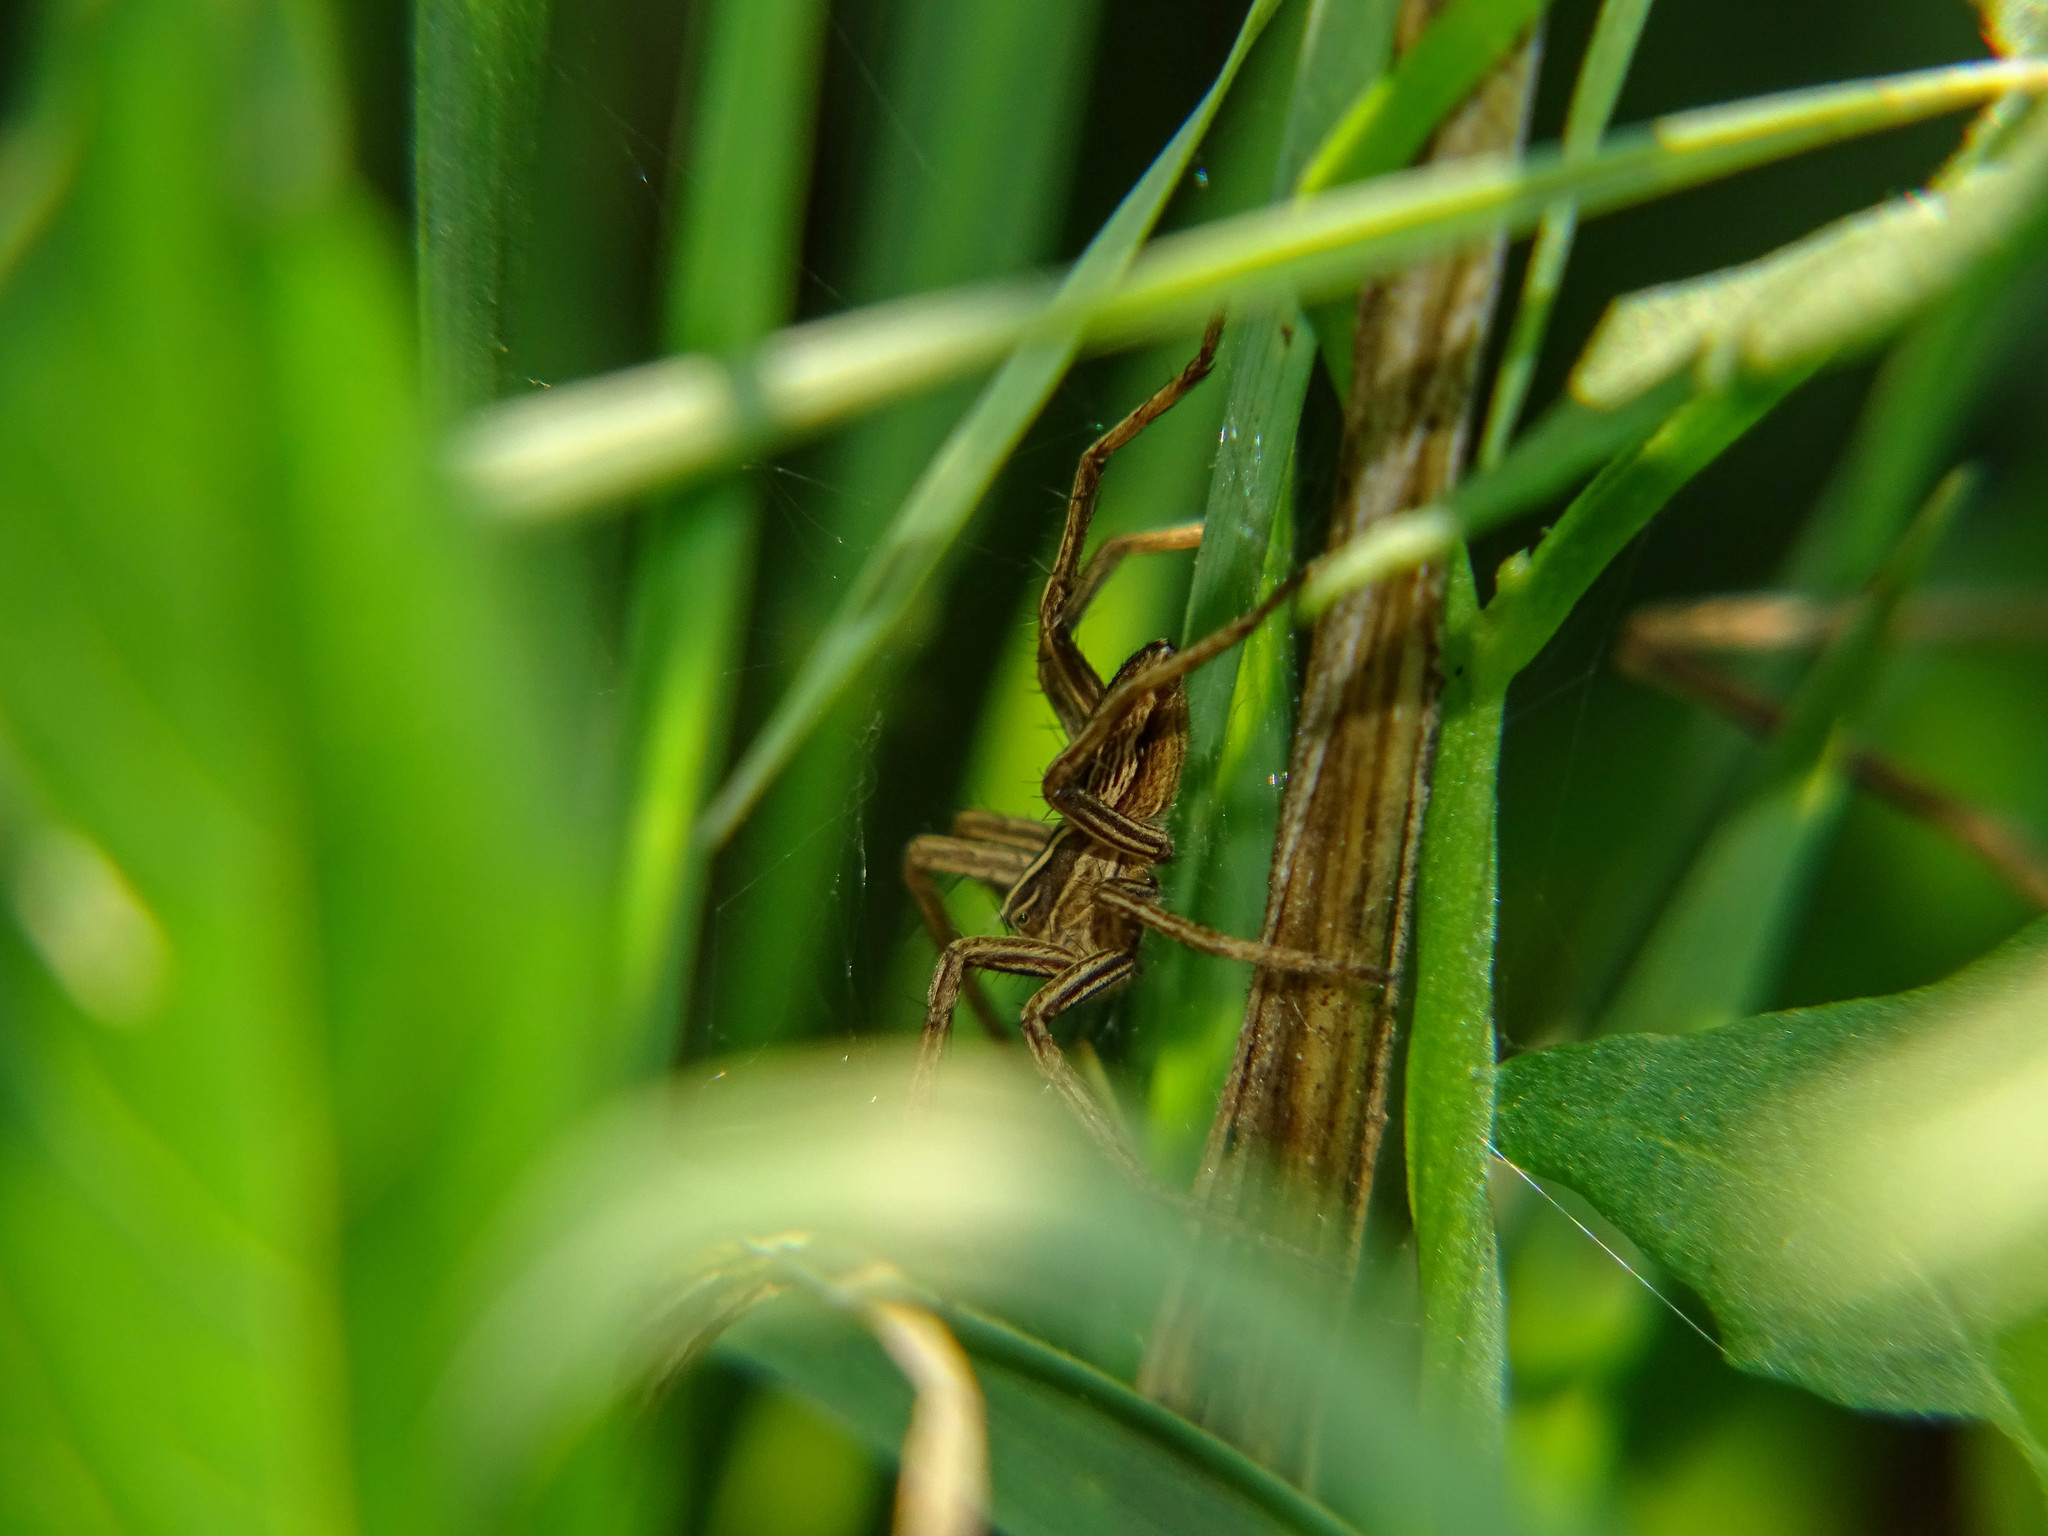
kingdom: Animalia
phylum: Arthropoda
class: Arachnida
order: Araneae
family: Pisauridae
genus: Pisaura
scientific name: Pisaura mirabilis
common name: Tent spider
